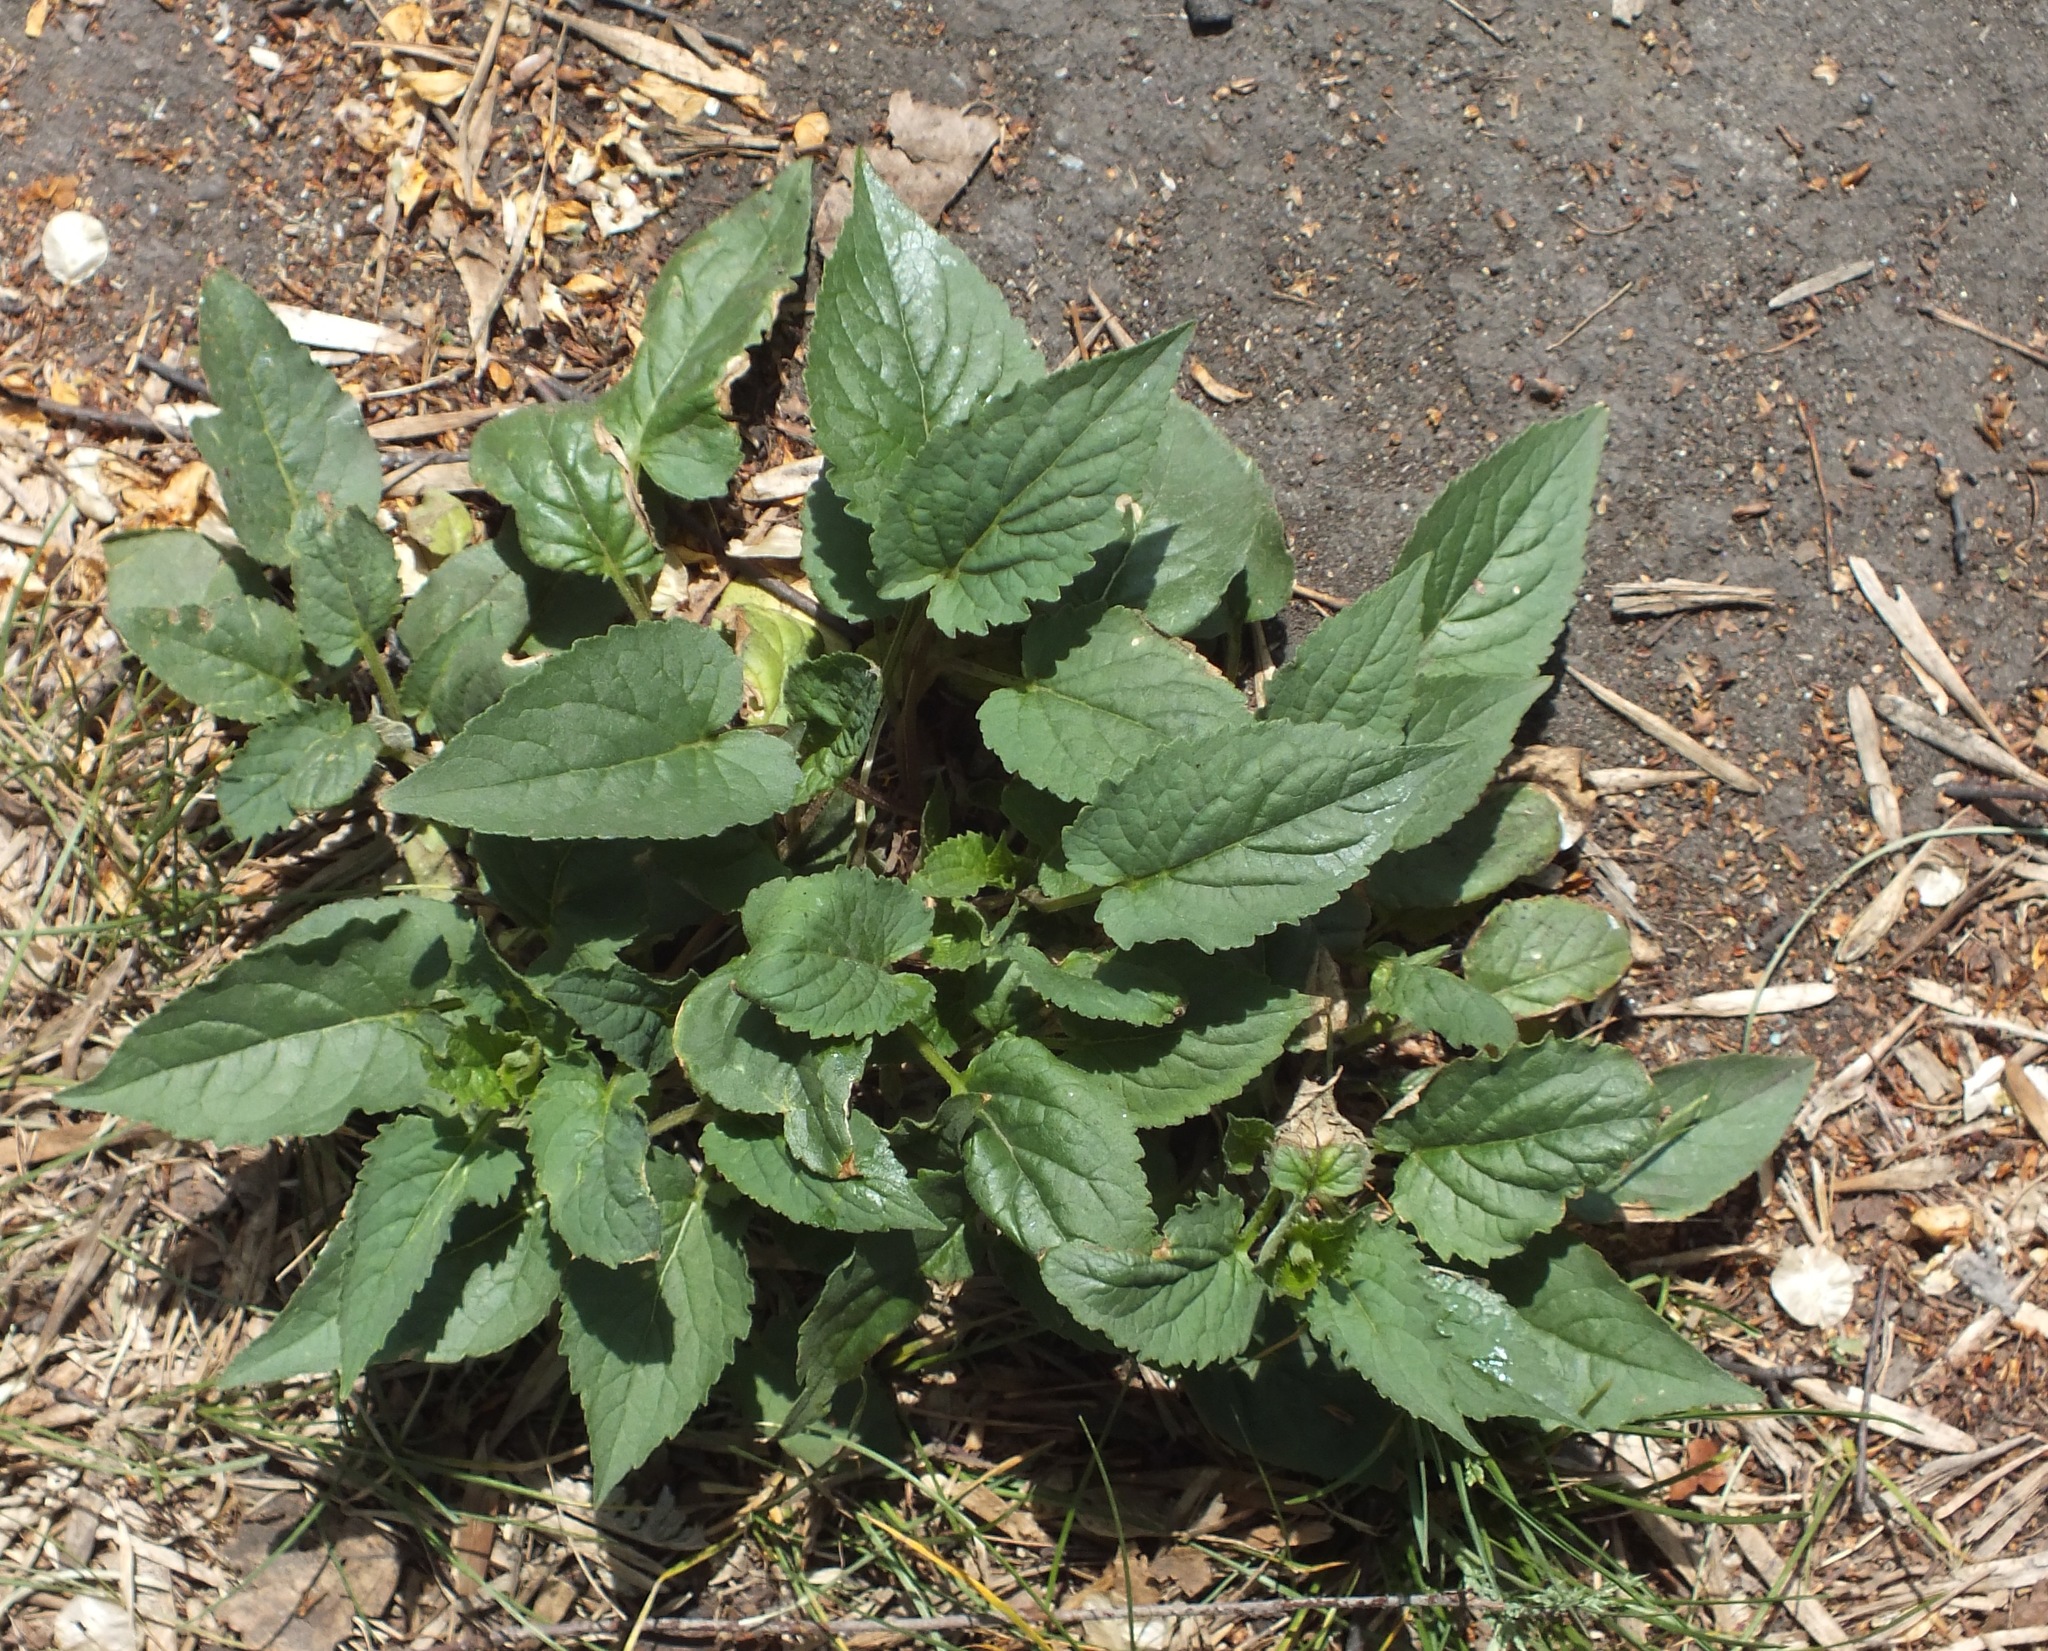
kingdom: Plantae
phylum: Tracheophyta
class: Magnoliopsida
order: Asterales
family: Campanulaceae
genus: Campanula
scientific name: Campanula rapunculoides
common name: Creeping bellflower
